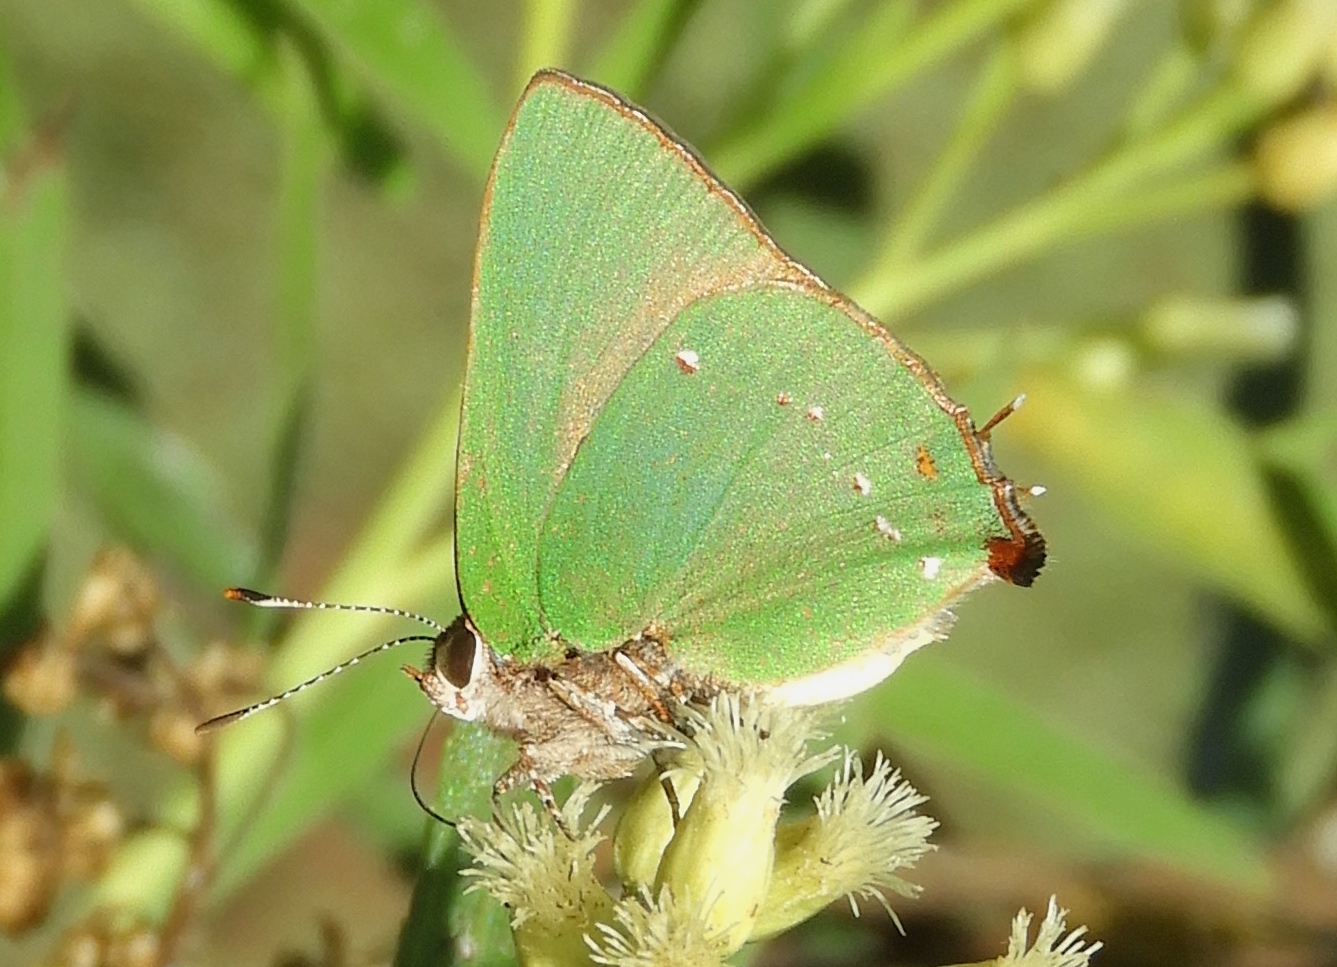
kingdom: Animalia
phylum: Arthropoda
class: Insecta
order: Lepidoptera
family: Lycaenidae
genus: Cyanophrys
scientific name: Cyanophrys
